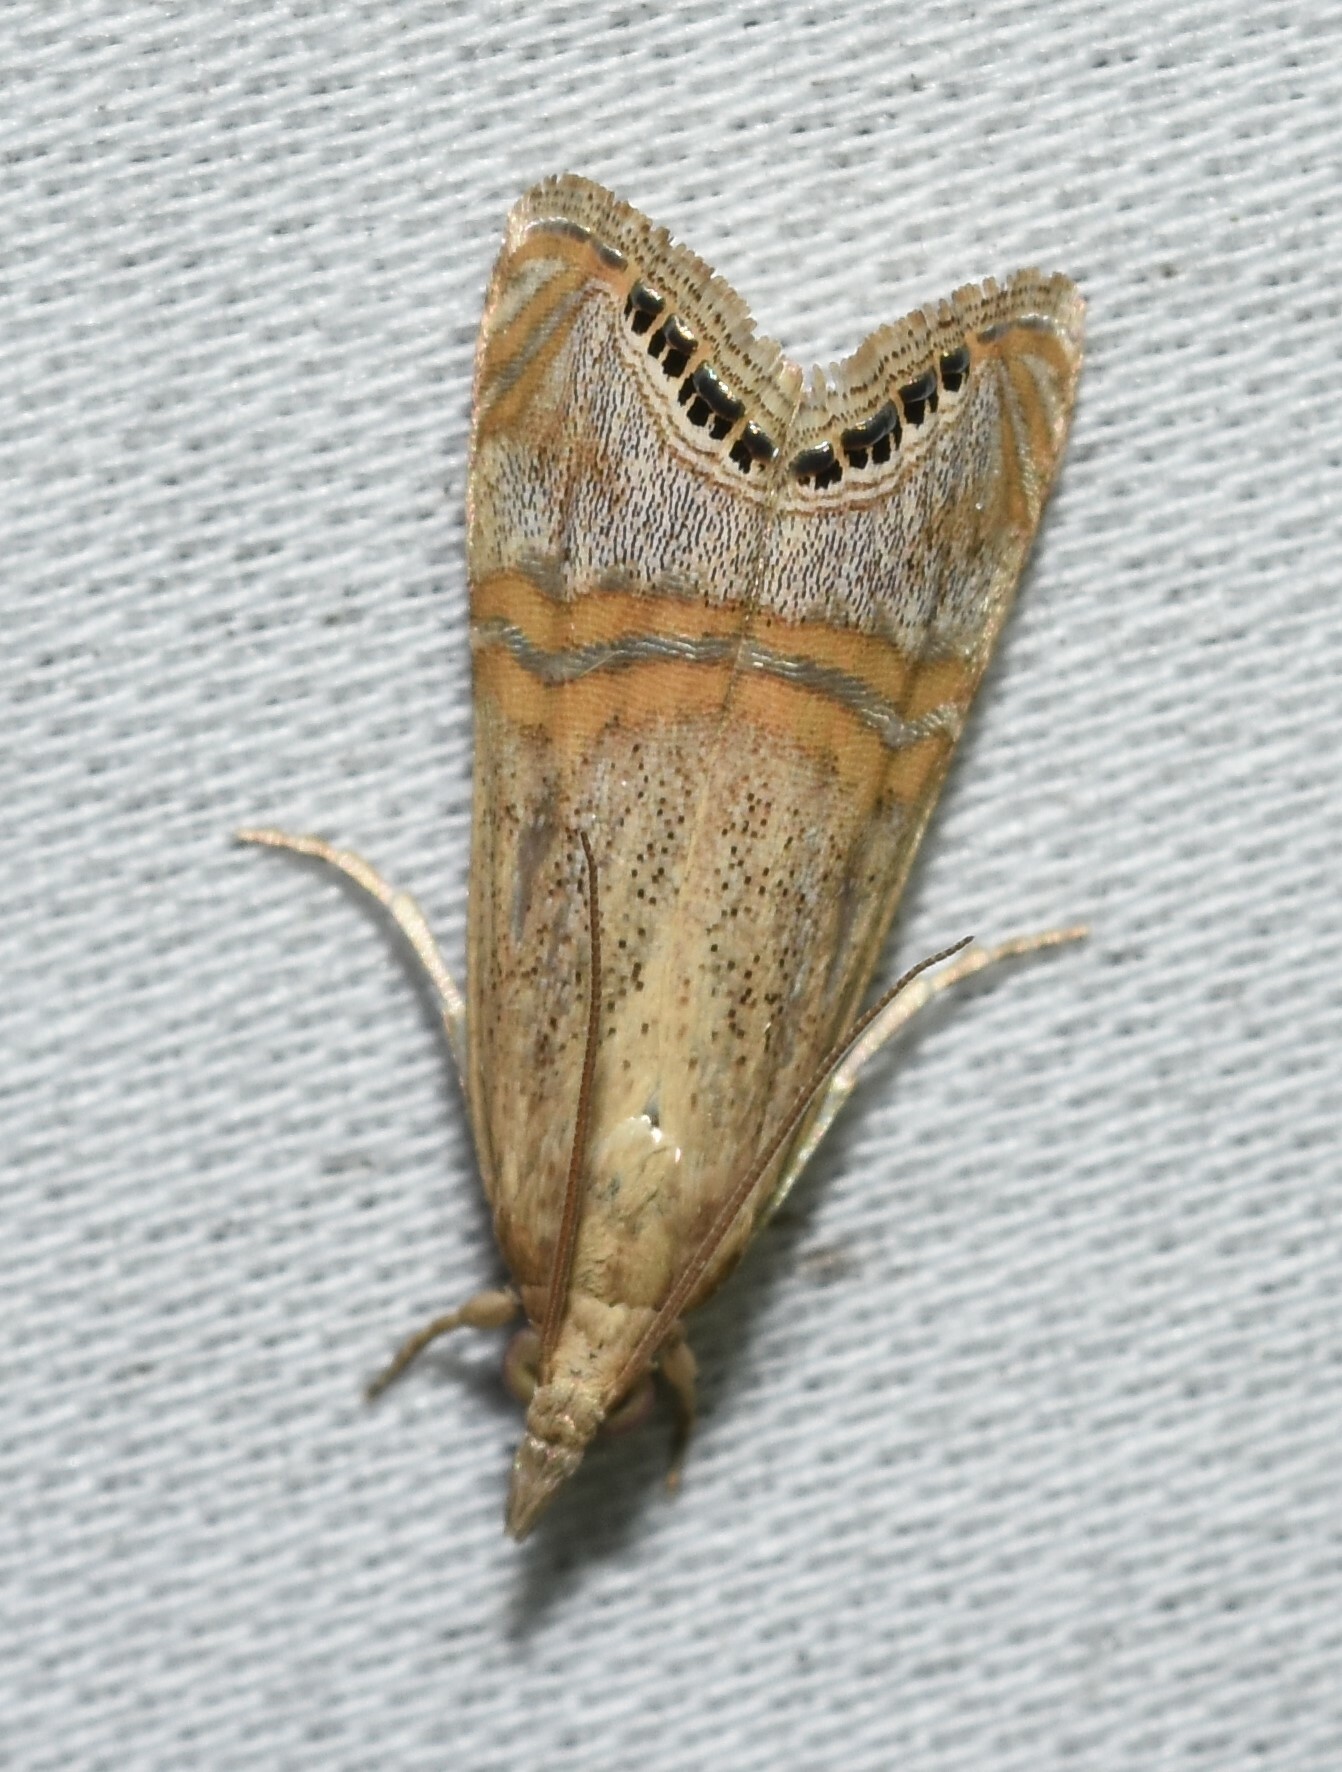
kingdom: Animalia
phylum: Arthropoda
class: Insecta
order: Lepidoptera
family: Crambidae
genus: Euchromius
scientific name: Euchromius ocellea
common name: Necklace veneer moth
